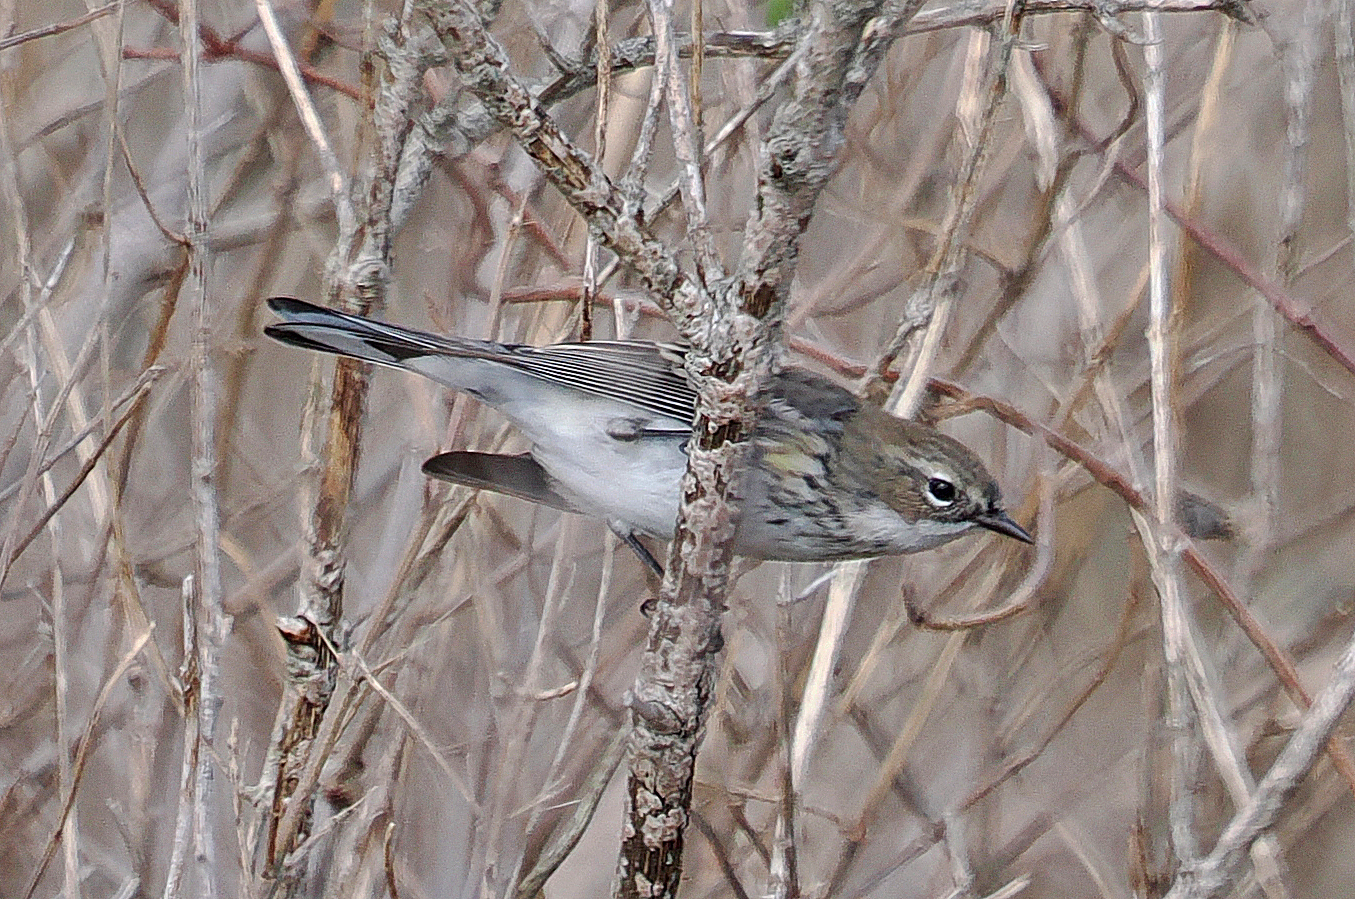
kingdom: Animalia
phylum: Chordata
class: Aves
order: Passeriformes
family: Parulidae
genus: Setophaga
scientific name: Setophaga coronata
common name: Myrtle warbler
